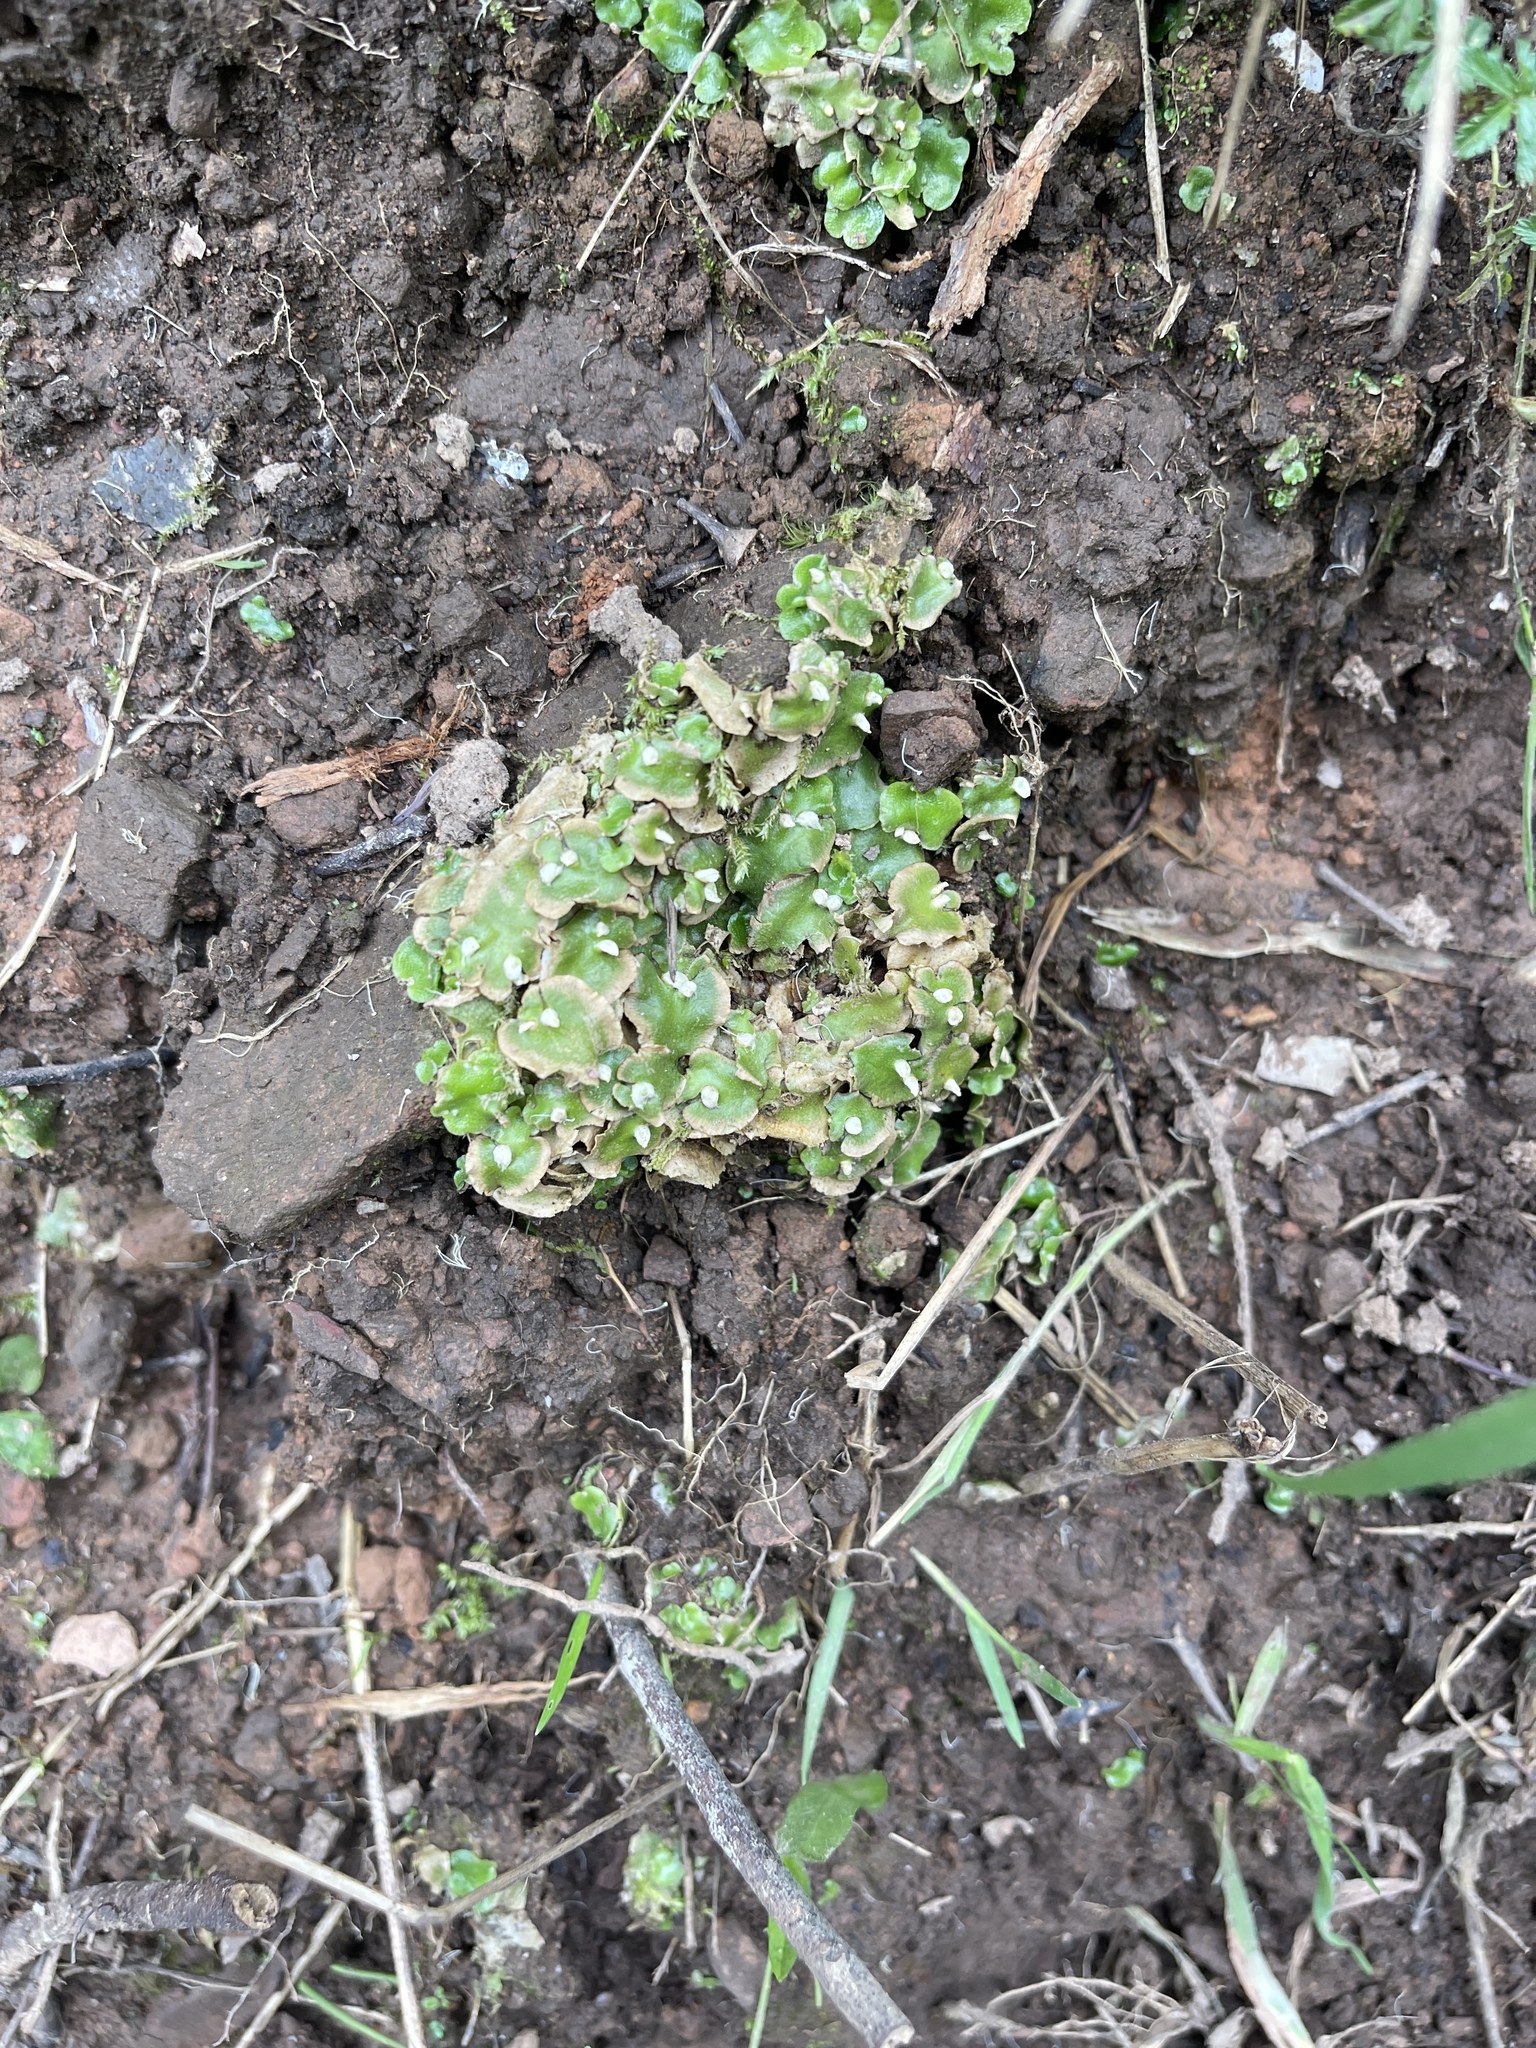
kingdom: Plantae
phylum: Marchantiophyta
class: Marchantiopsida
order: Lunulariales
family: Lunulariaceae
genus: Lunularia
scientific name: Lunularia cruciata
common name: Crescent-cup liverwort
